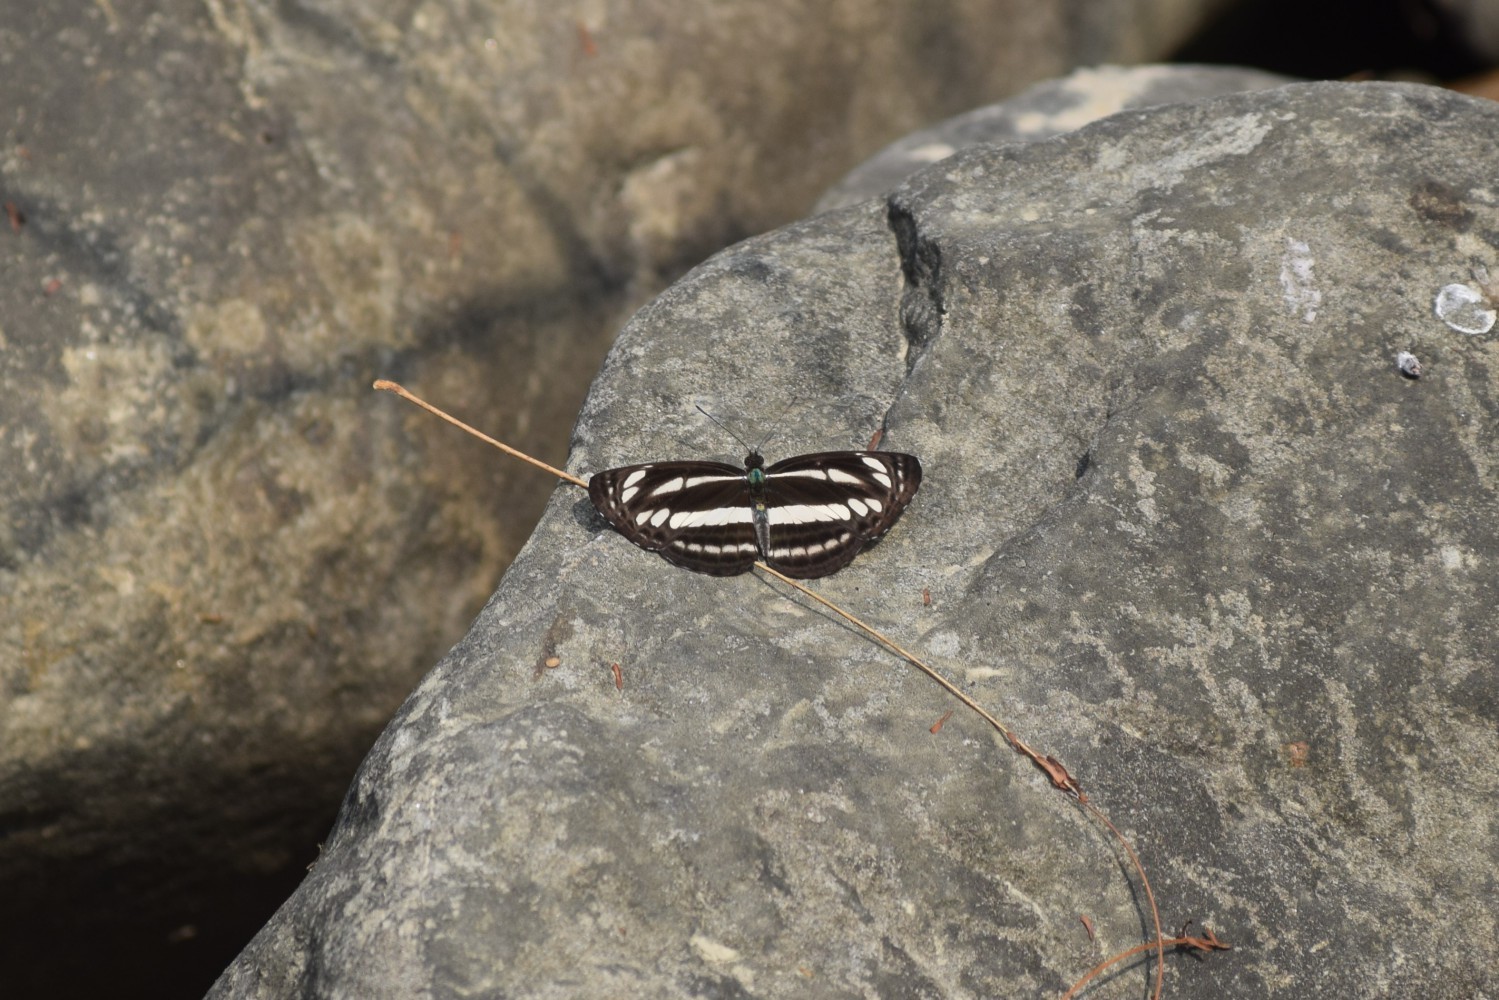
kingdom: Animalia
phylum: Arthropoda
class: Insecta
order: Lepidoptera
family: Nymphalidae
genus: Neptis
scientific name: Neptis hylas
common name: Common sailer
